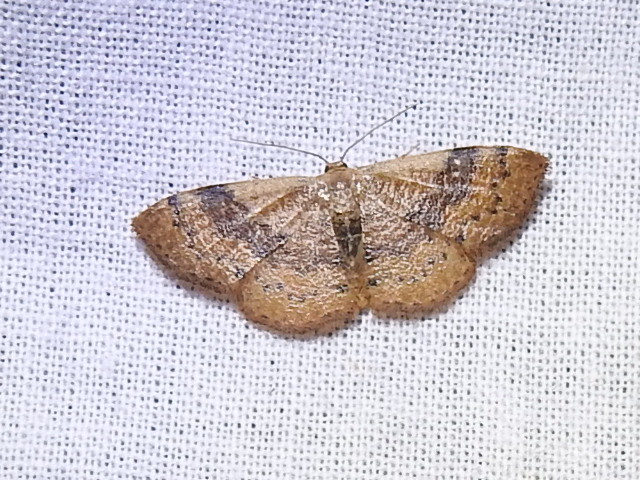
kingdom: Animalia
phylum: Arthropoda
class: Insecta
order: Lepidoptera
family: Geometridae
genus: Leptostales
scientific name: Leptostales rubromarginaria
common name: Dark-ribboned wave
